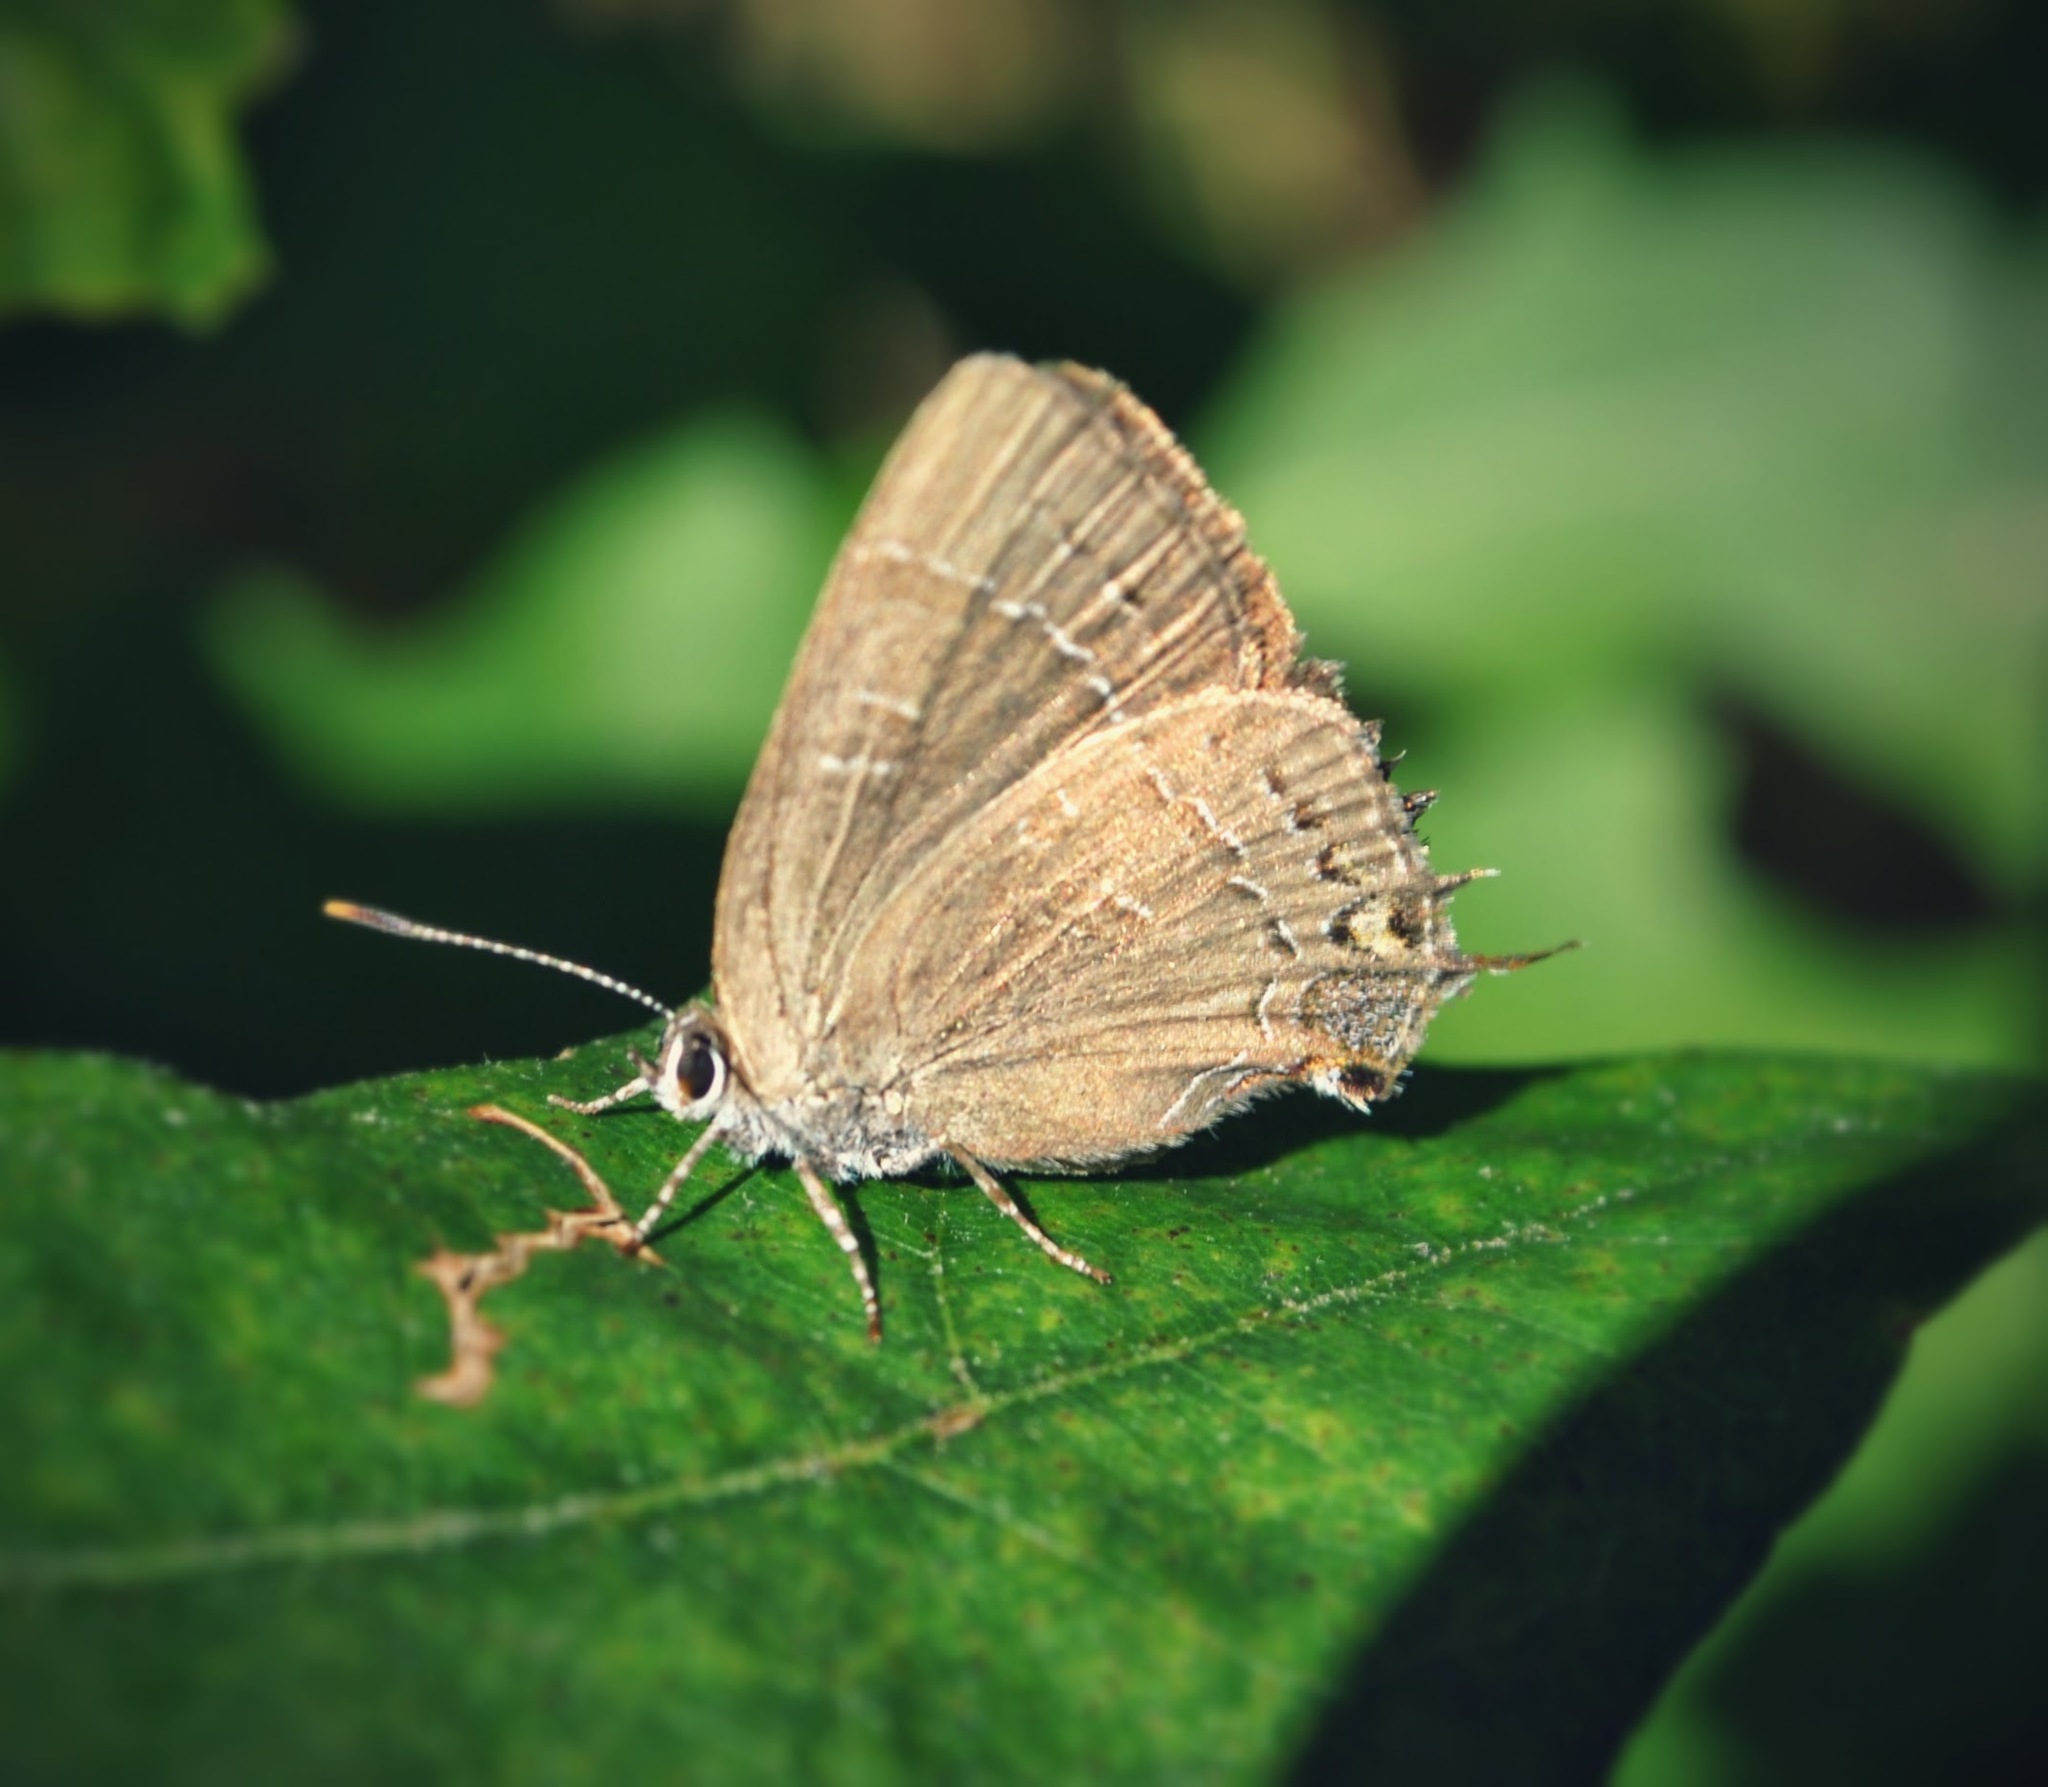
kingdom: Animalia
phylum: Arthropoda
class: Insecta
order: Lepidoptera
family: Lycaenidae
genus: Satyrium
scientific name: Satyrium calanus
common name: Banded hairstreak
